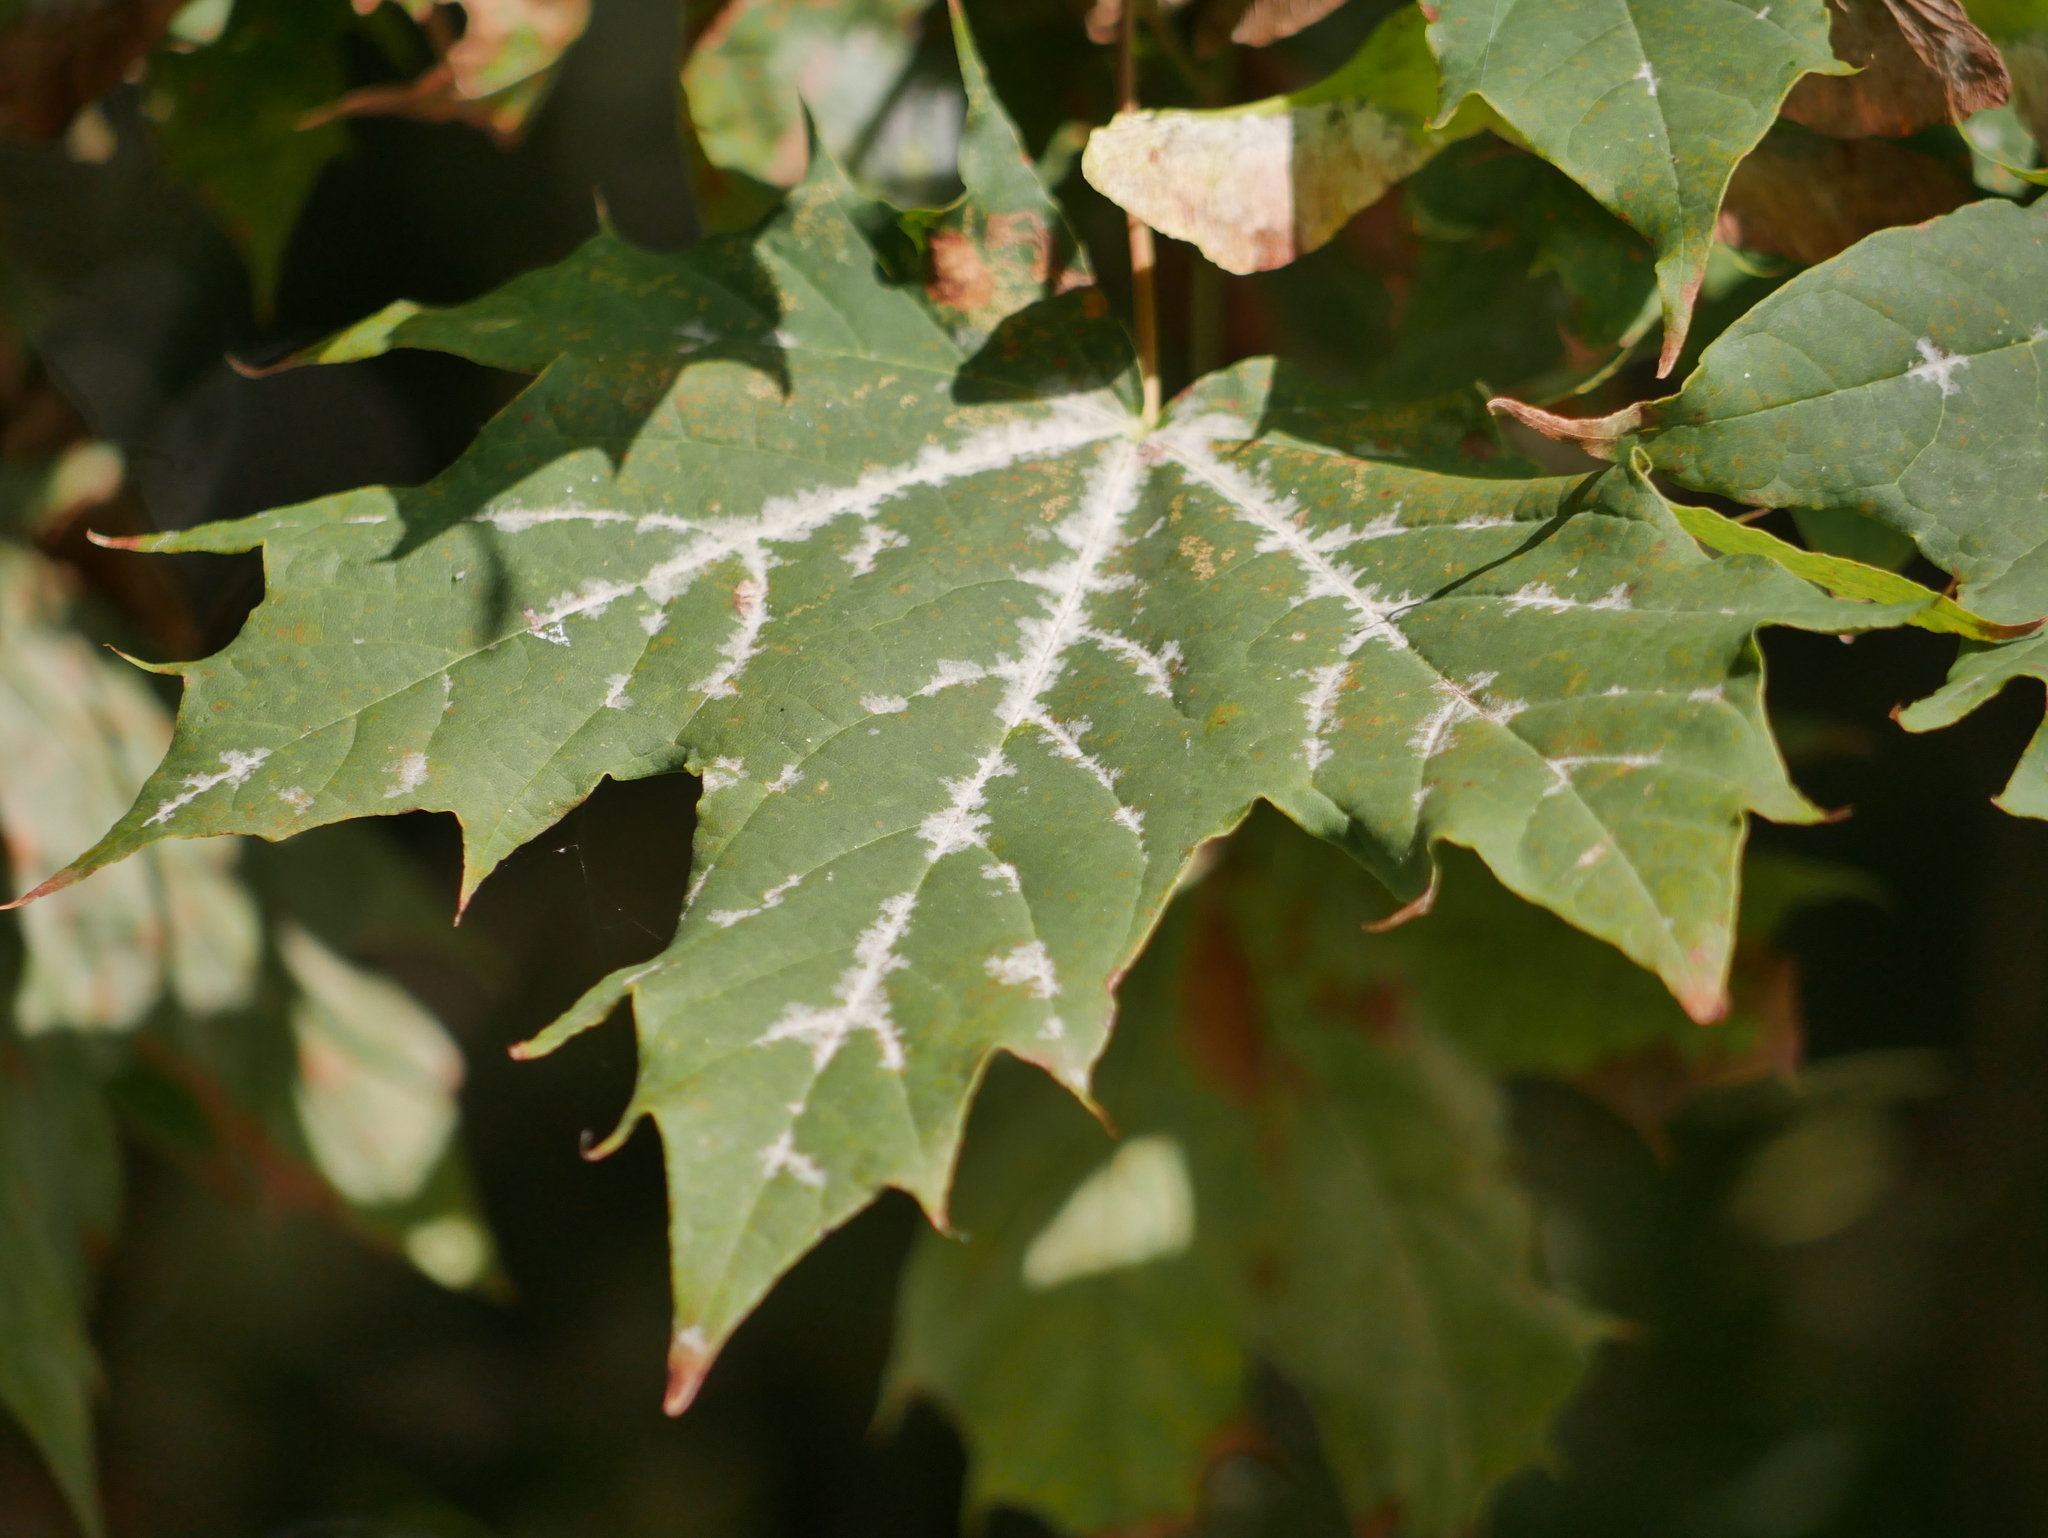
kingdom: Fungi
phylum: Ascomycota
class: Leotiomycetes
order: Helotiales
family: Erysiphaceae
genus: Sawadaea
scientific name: Sawadaea tulasnei
